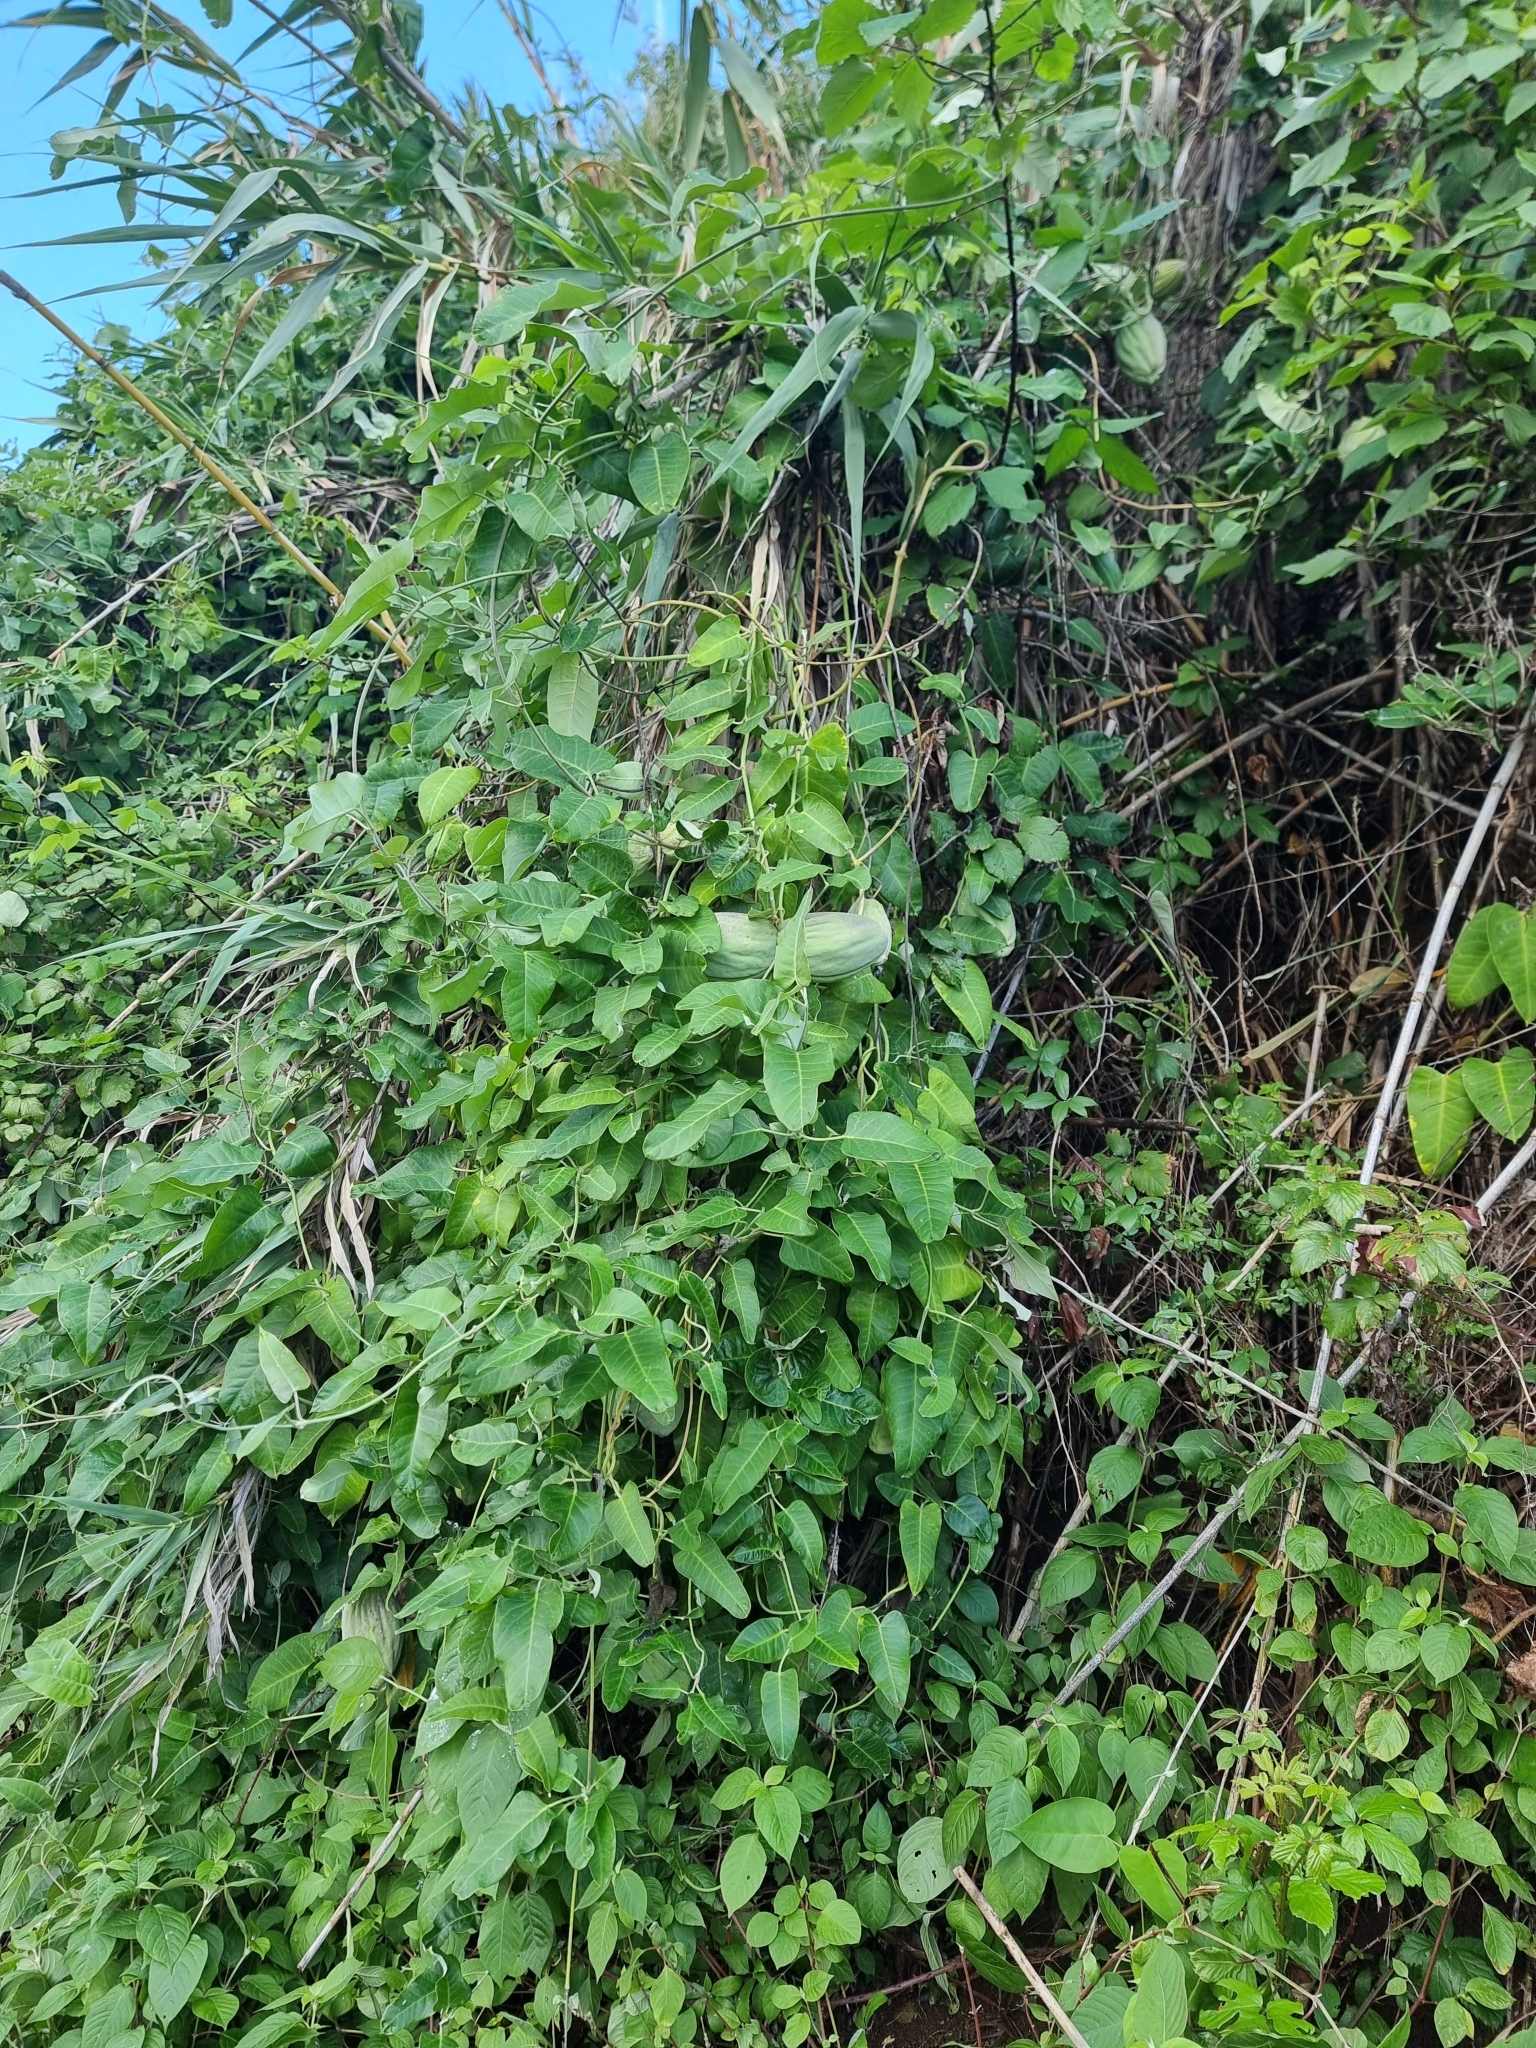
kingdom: Plantae
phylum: Tracheophyta
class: Magnoliopsida
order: Gentianales
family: Apocynaceae
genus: Araujia
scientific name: Araujia sericifera
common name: White bladderflower
